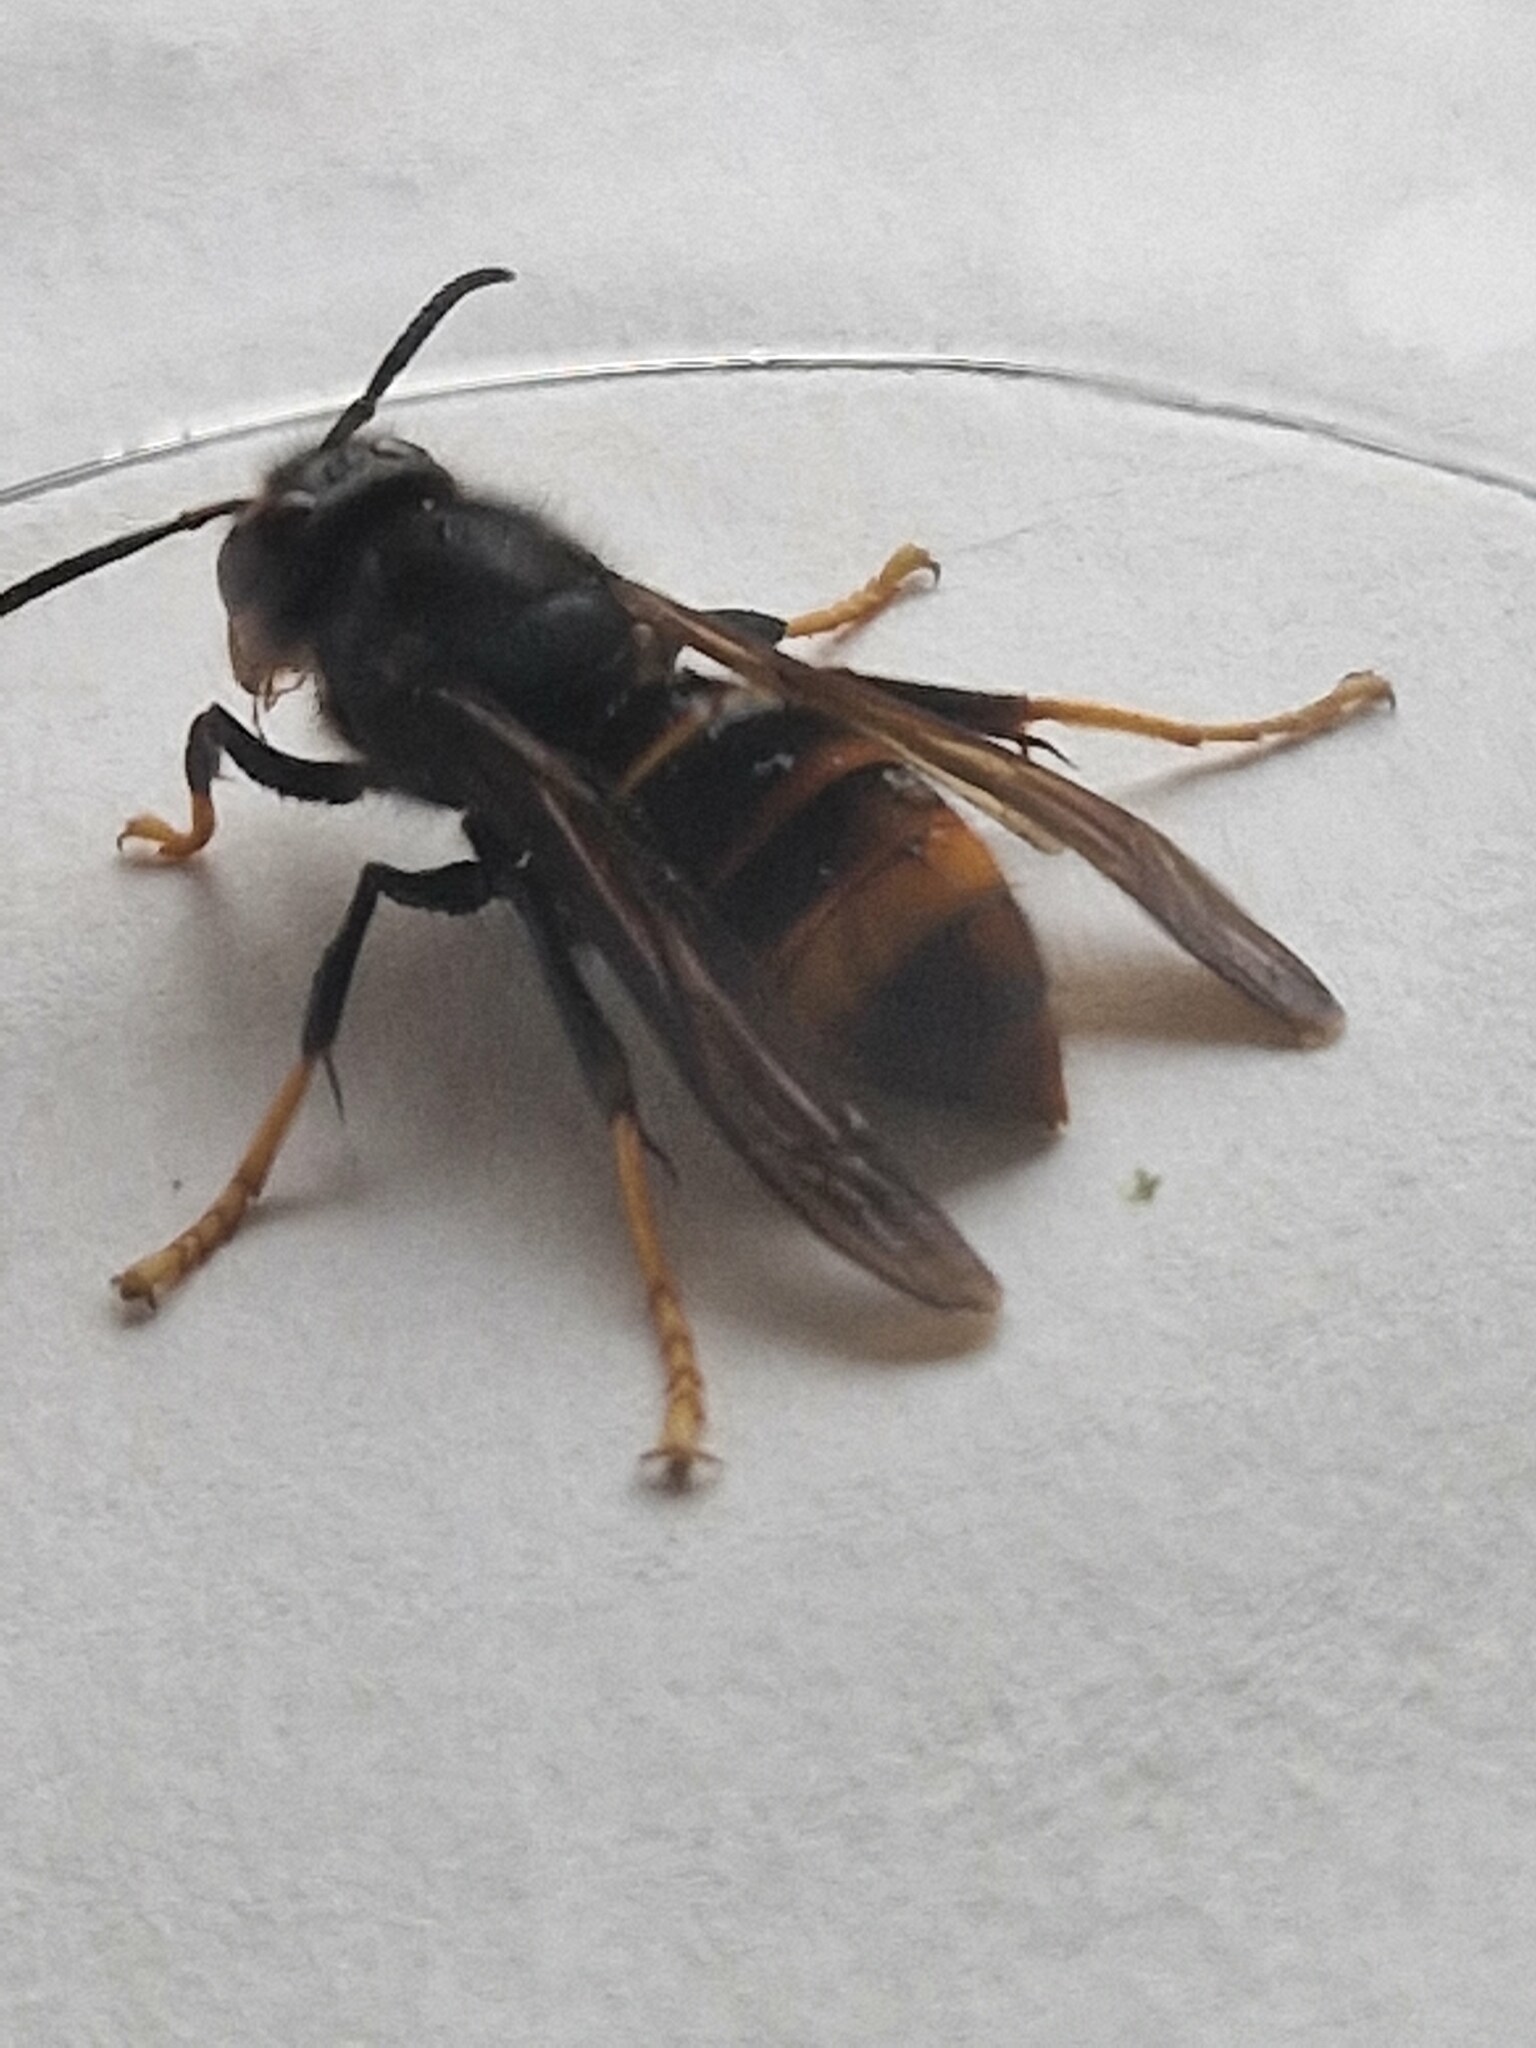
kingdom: Animalia
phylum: Arthropoda
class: Insecta
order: Hymenoptera
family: Vespidae
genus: Vespa
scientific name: Vespa velutina
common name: Asian hornet
